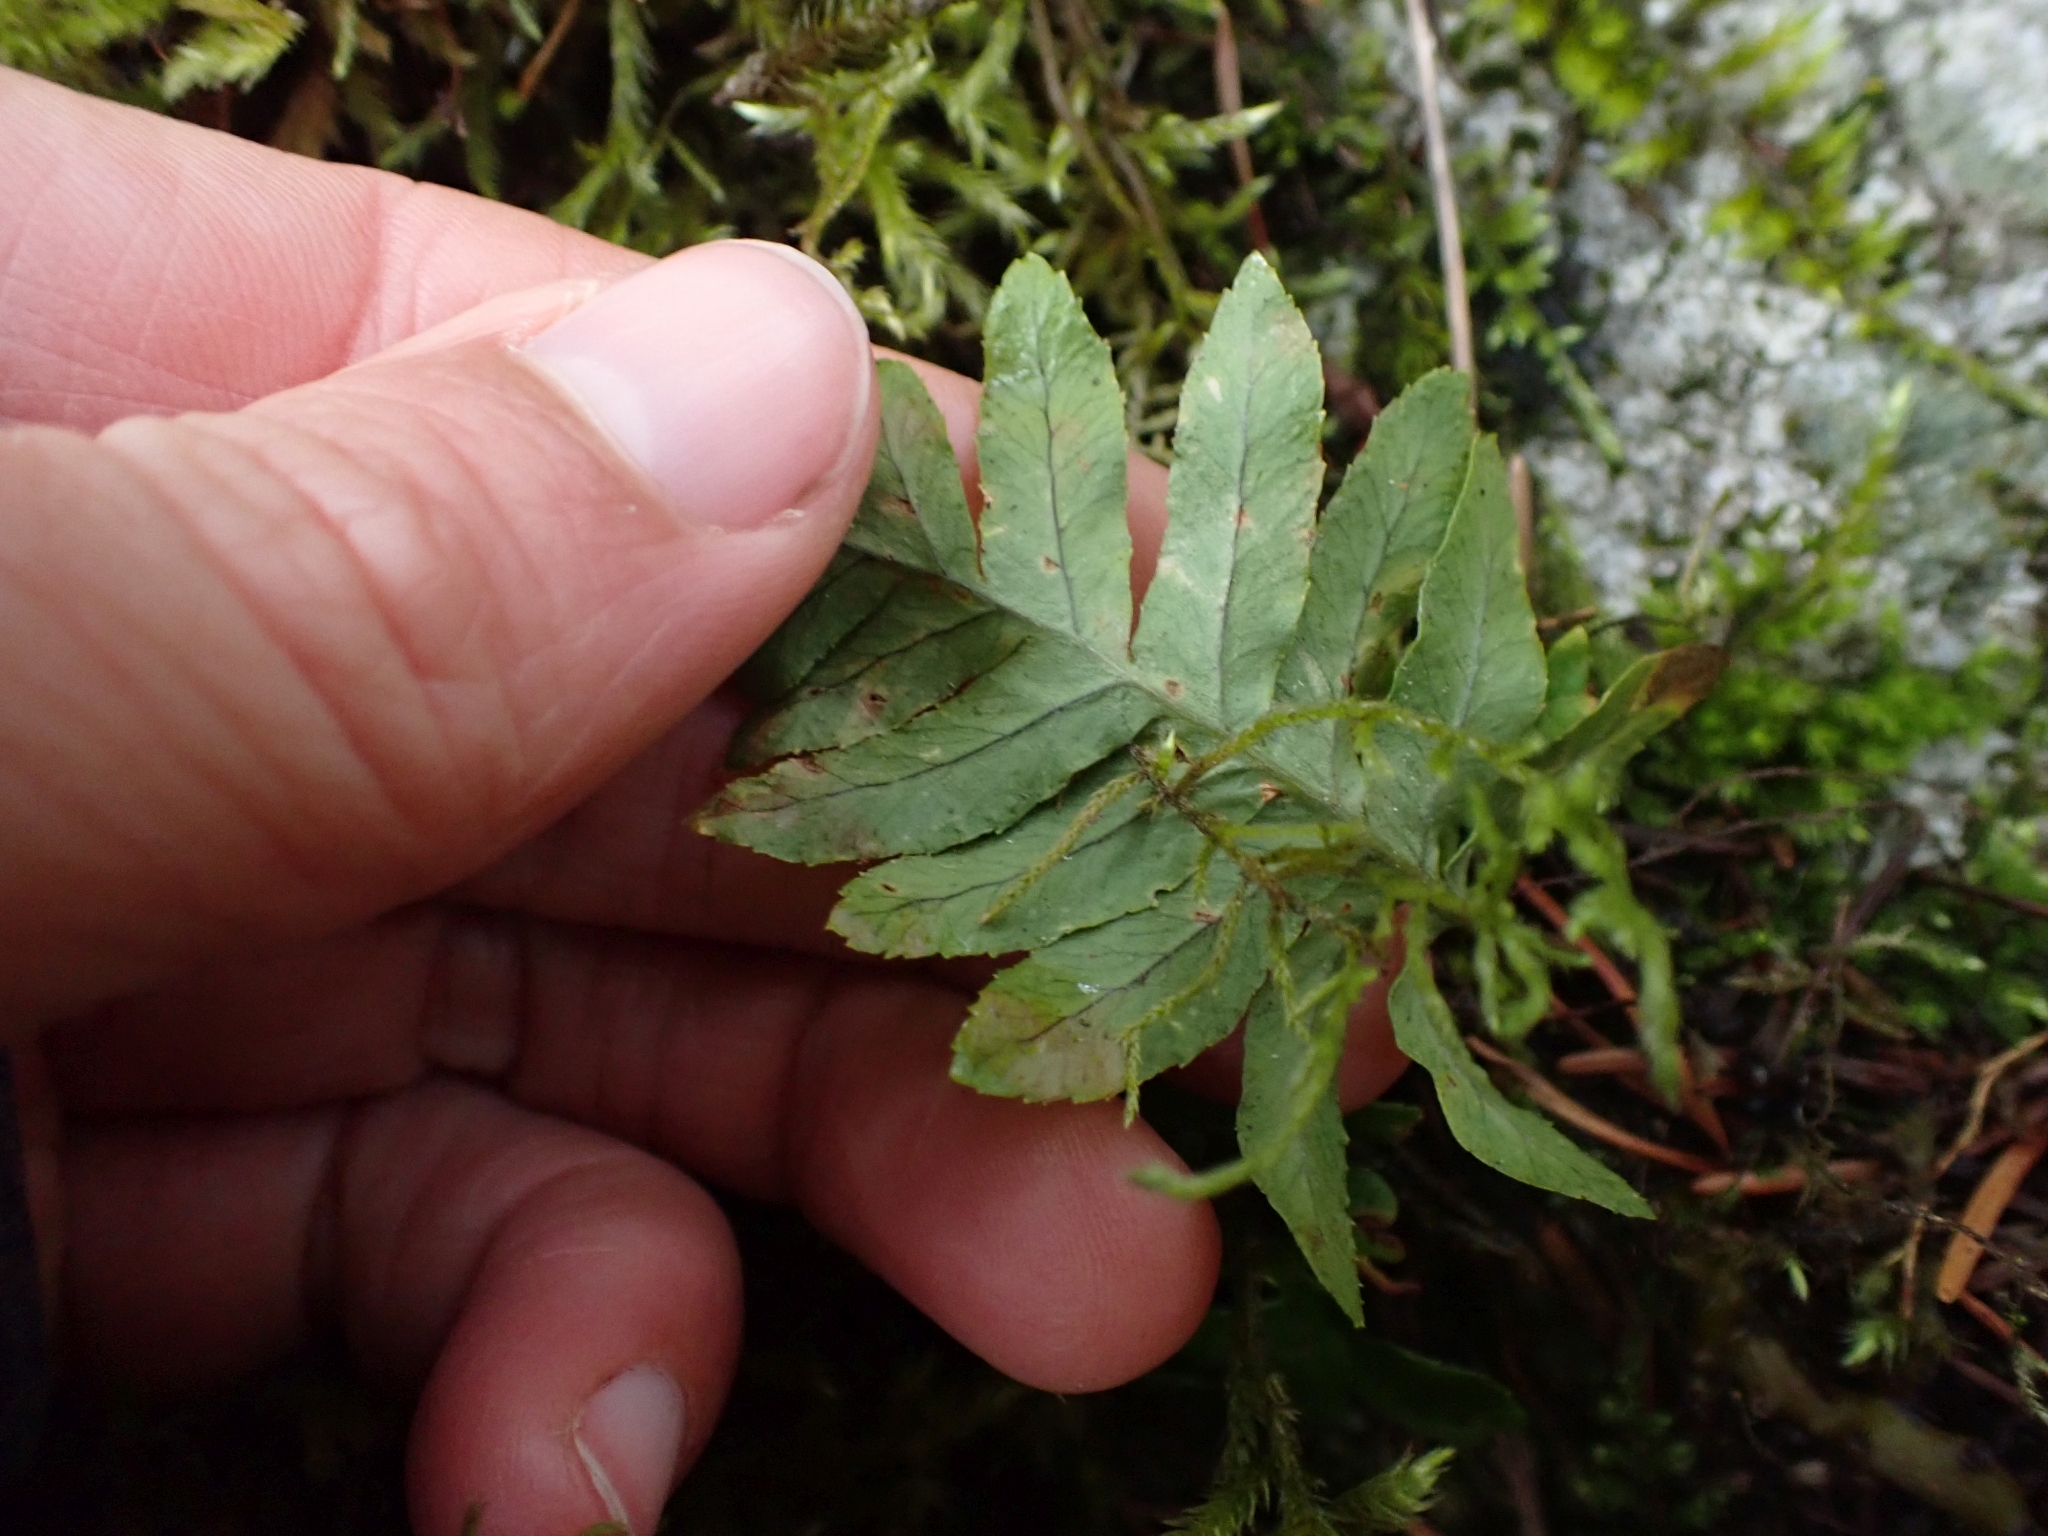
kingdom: Plantae
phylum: Tracheophyta
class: Polypodiopsida
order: Polypodiales
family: Polypodiaceae
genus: Polypodium
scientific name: Polypodium glycyrrhiza
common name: Licorice fern
